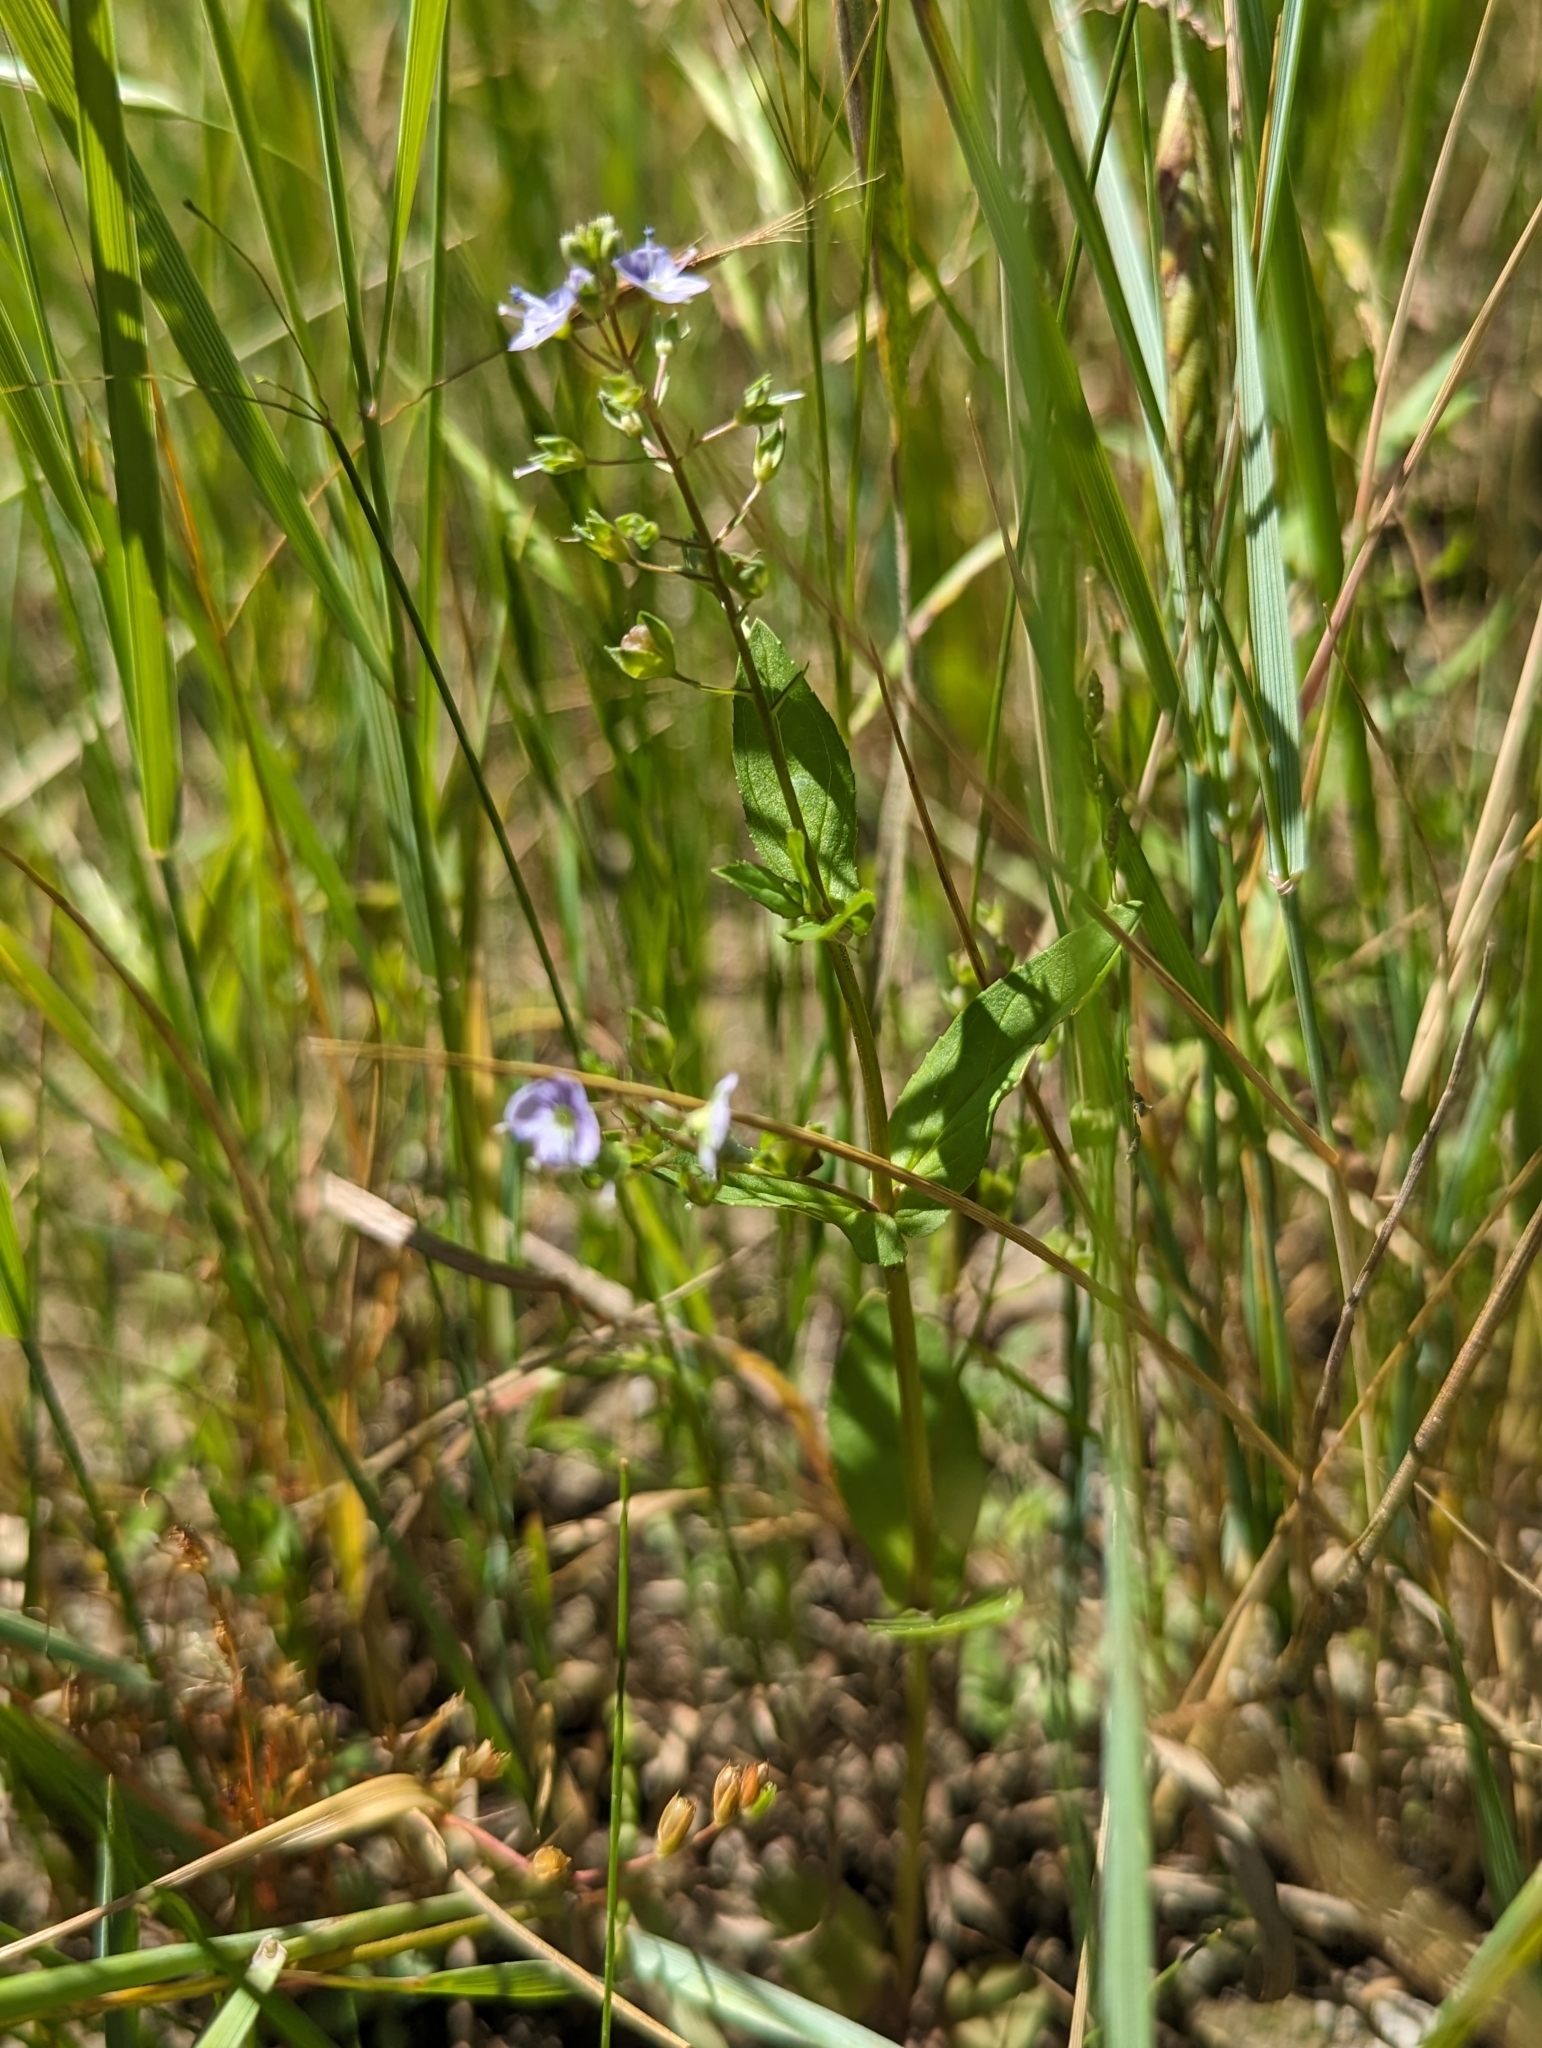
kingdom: Plantae
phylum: Tracheophyta
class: Magnoliopsida
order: Lamiales
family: Plantaginaceae
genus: Veronica
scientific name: Veronica americana
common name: American brooklime
